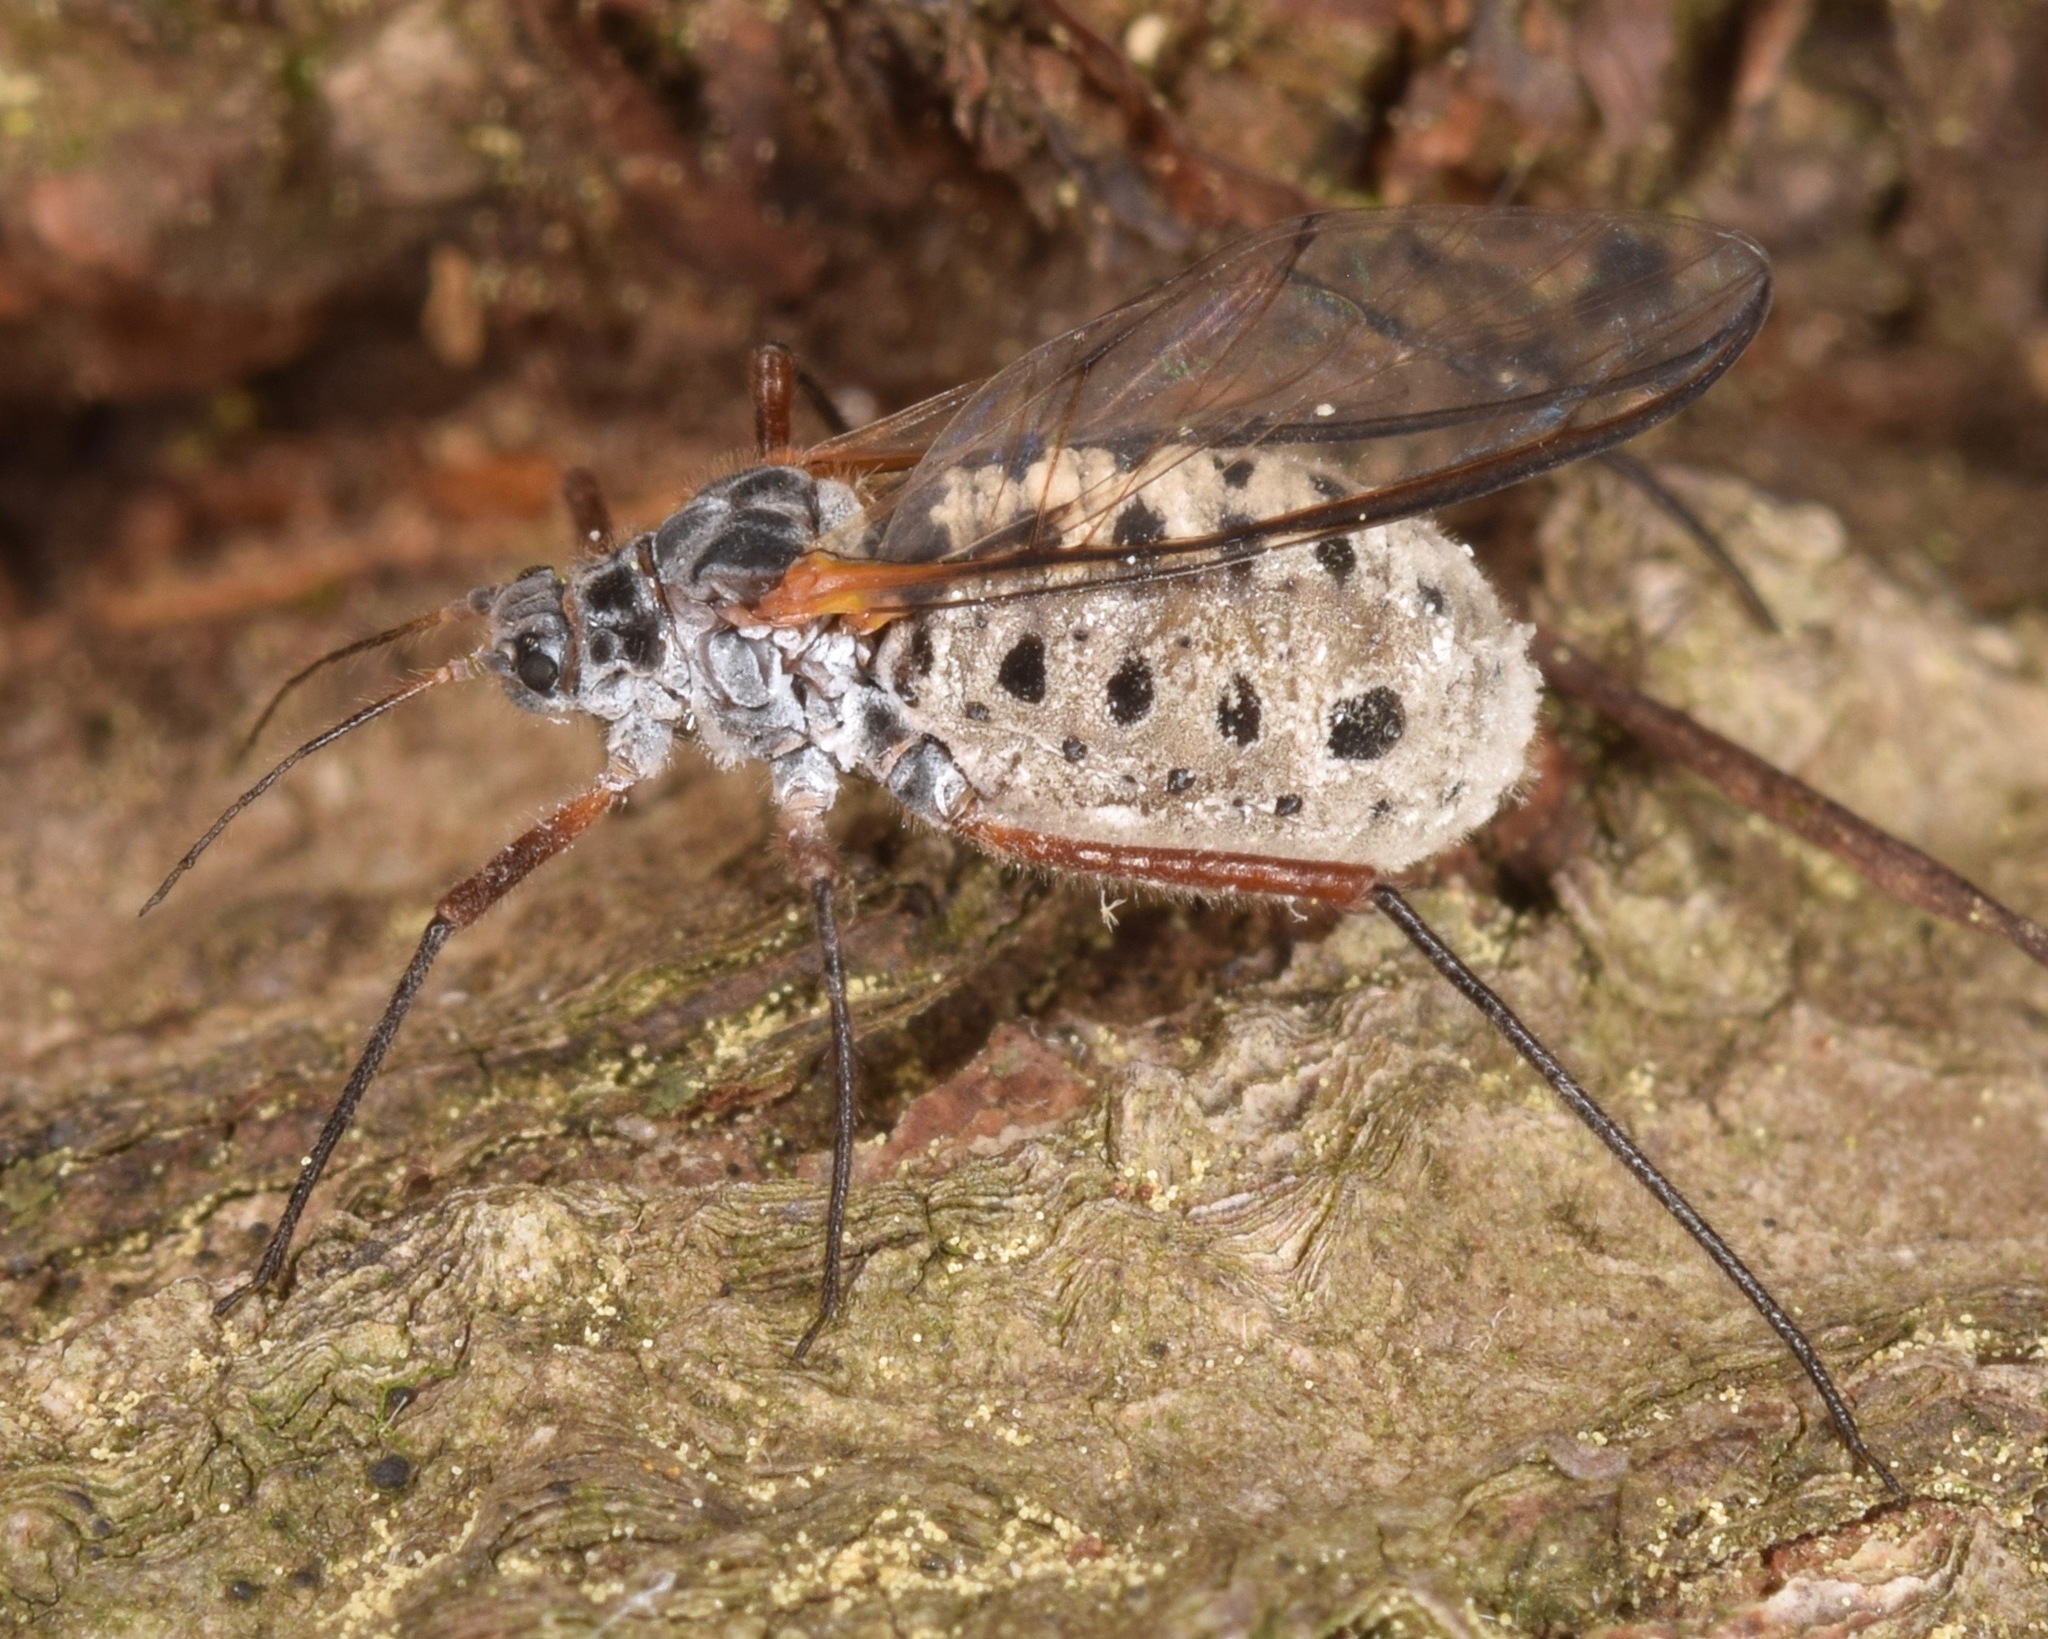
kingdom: Animalia
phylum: Arthropoda
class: Insecta
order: Hemiptera
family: Aphididae
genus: Longistigma
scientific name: Longistigma caryae
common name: Giant bark aphid
